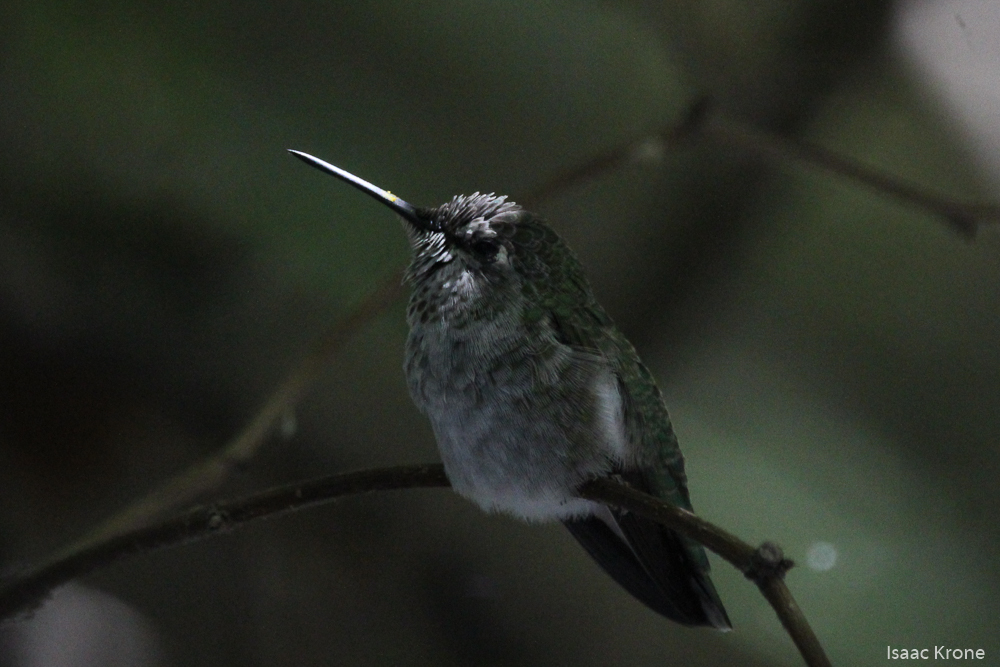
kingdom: Animalia
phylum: Chordata
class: Aves
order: Apodiformes
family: Trochilidae
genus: Calypte
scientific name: Calypte anna
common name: Anna's hummingbird
